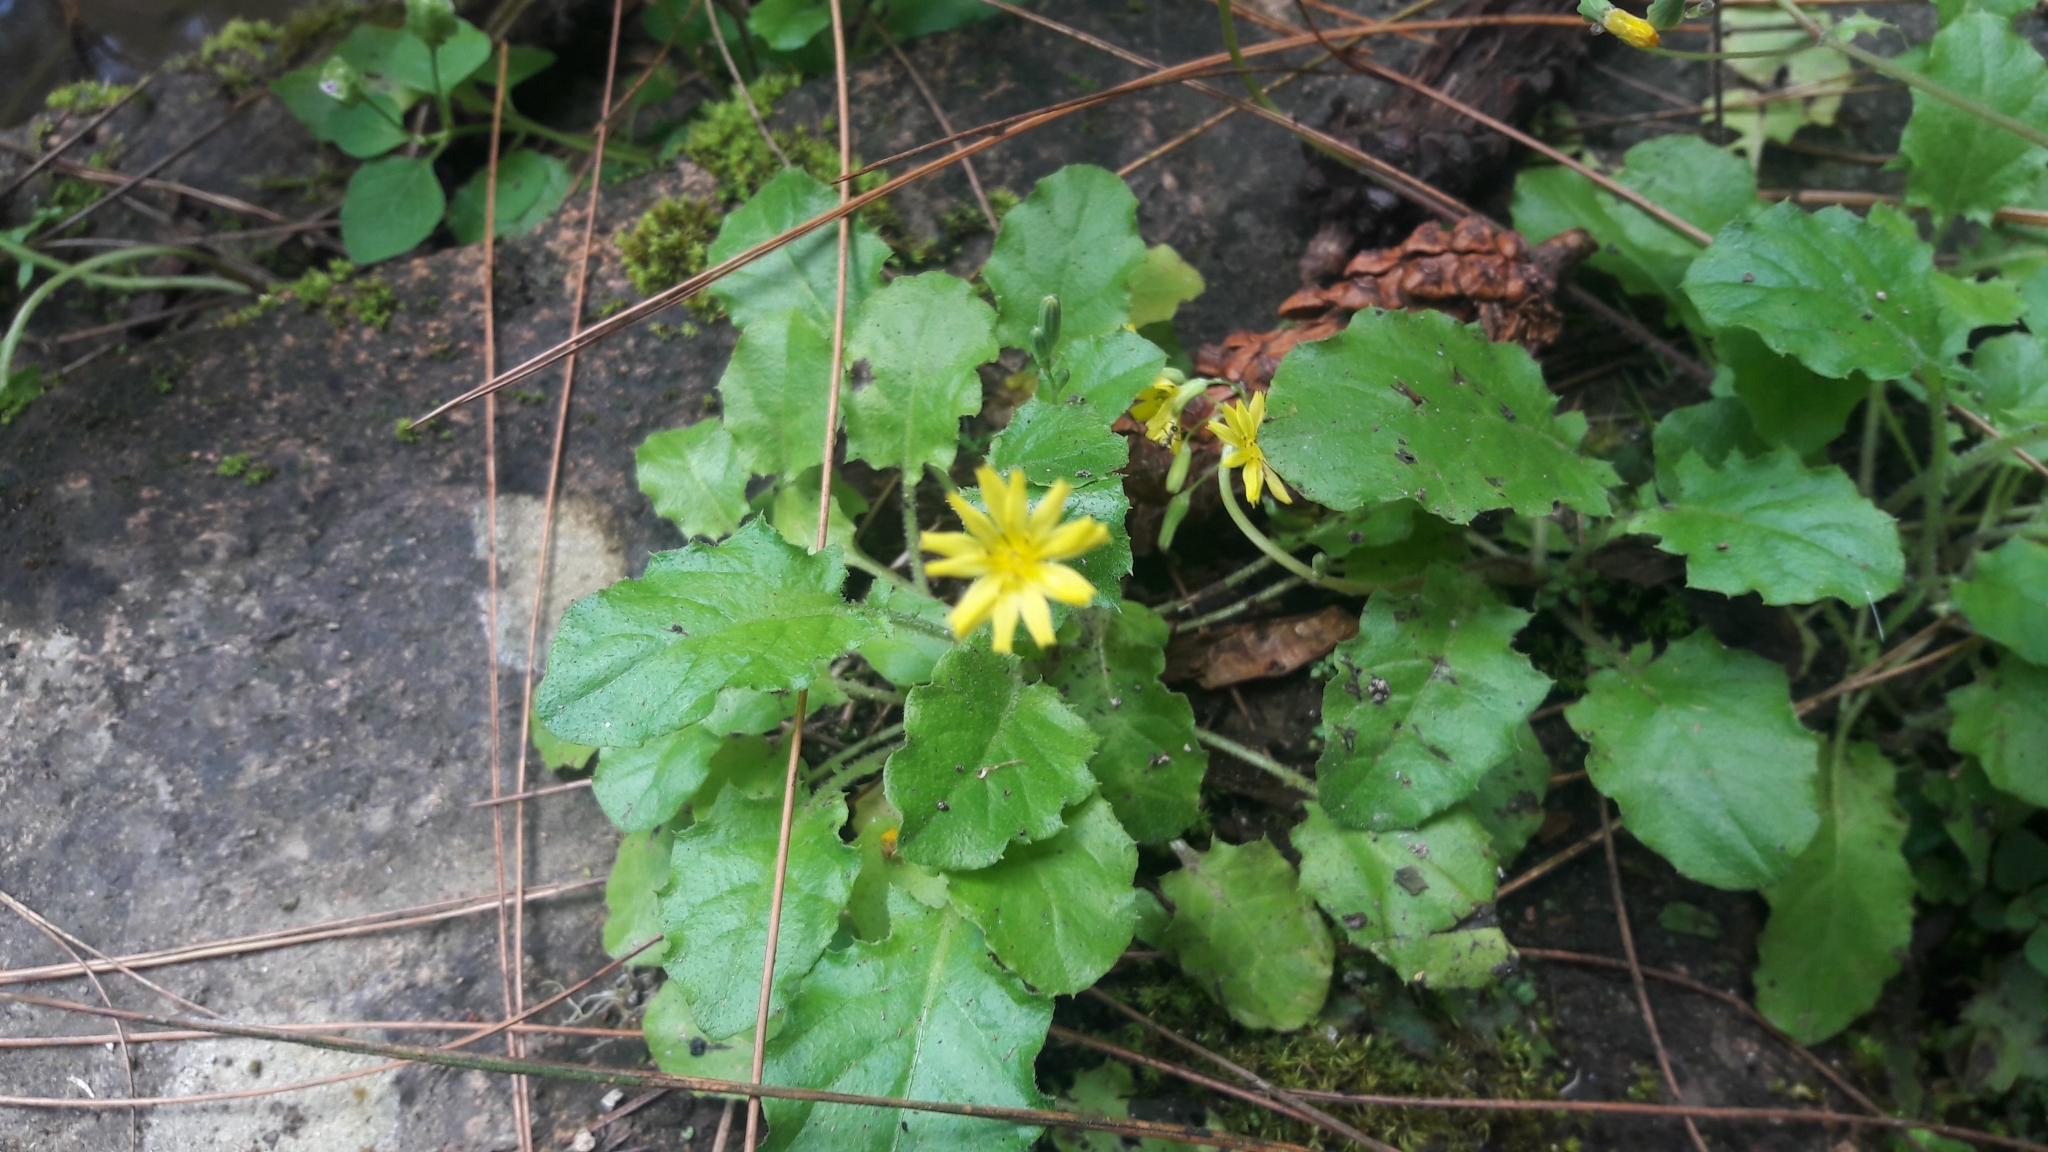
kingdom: Plantae
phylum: Tracheophyta
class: Magnoliopsida
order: Asterales
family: Asteraceae
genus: Youngia
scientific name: Youngia japonica
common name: Oriental false hawksbeard
